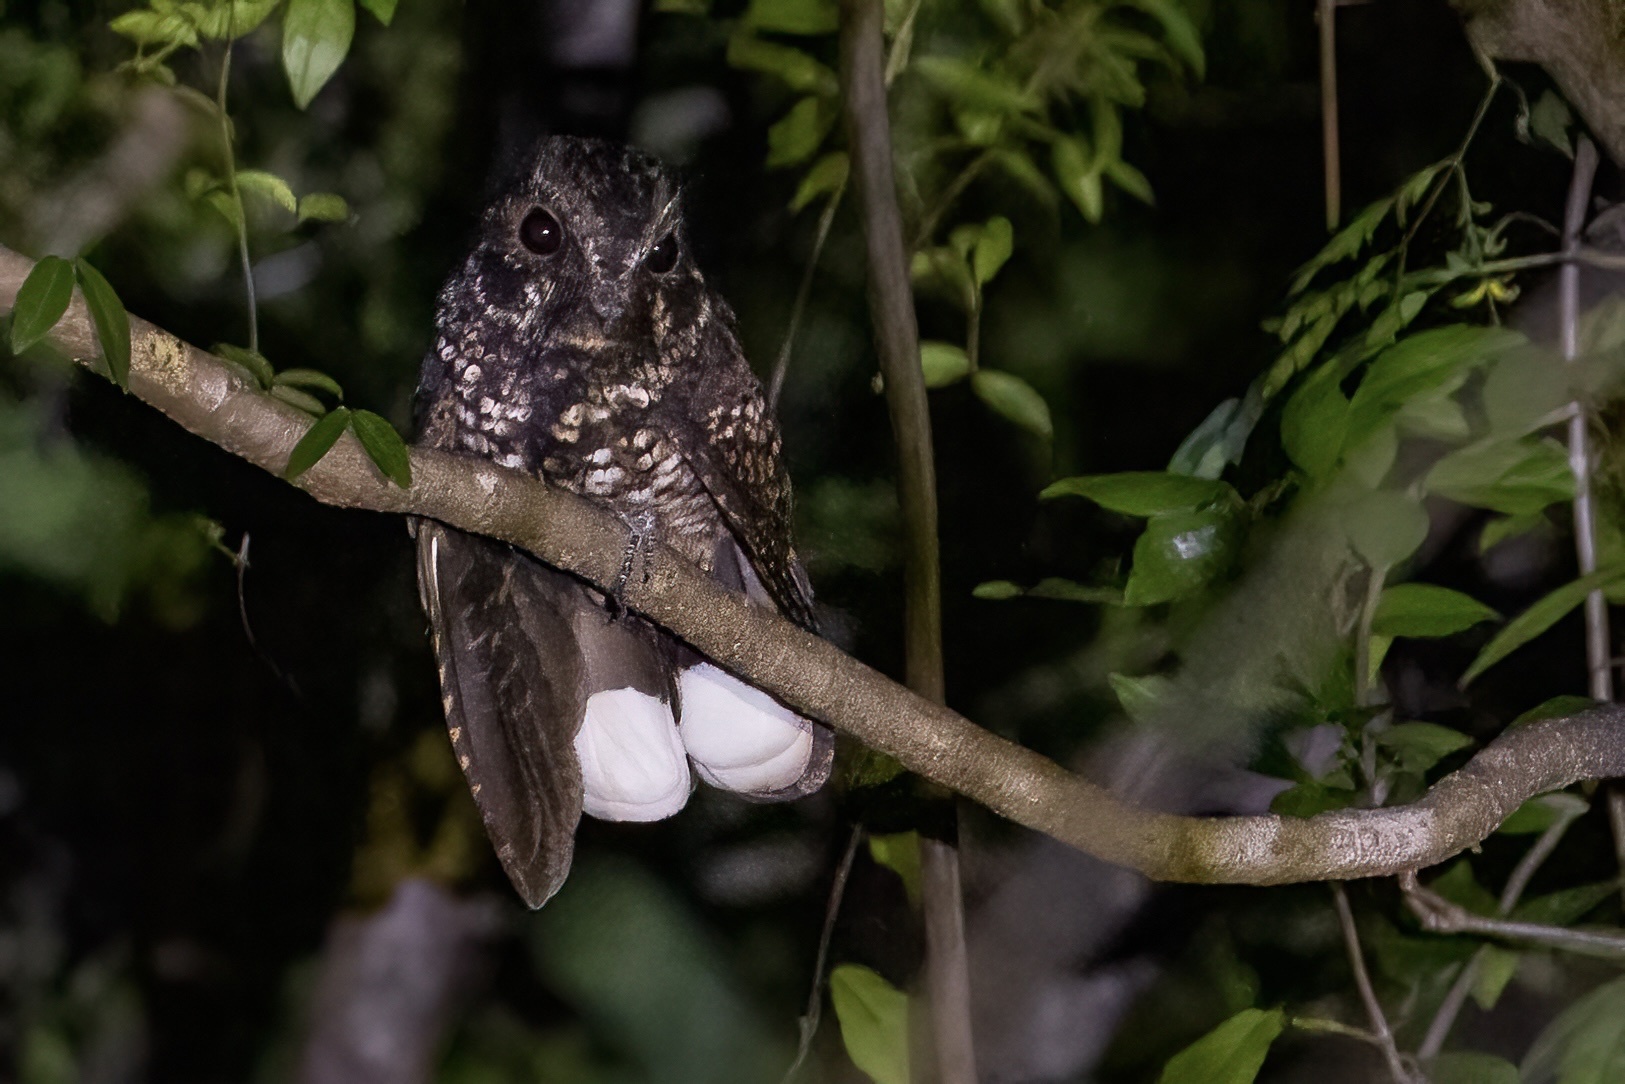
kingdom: Animalia
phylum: Chordata
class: Aves
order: Caprimulgiformes
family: Caprimulgidae
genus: Antrostomus
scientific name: Antrostomus noctitherus
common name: Puerto rican nightjar
